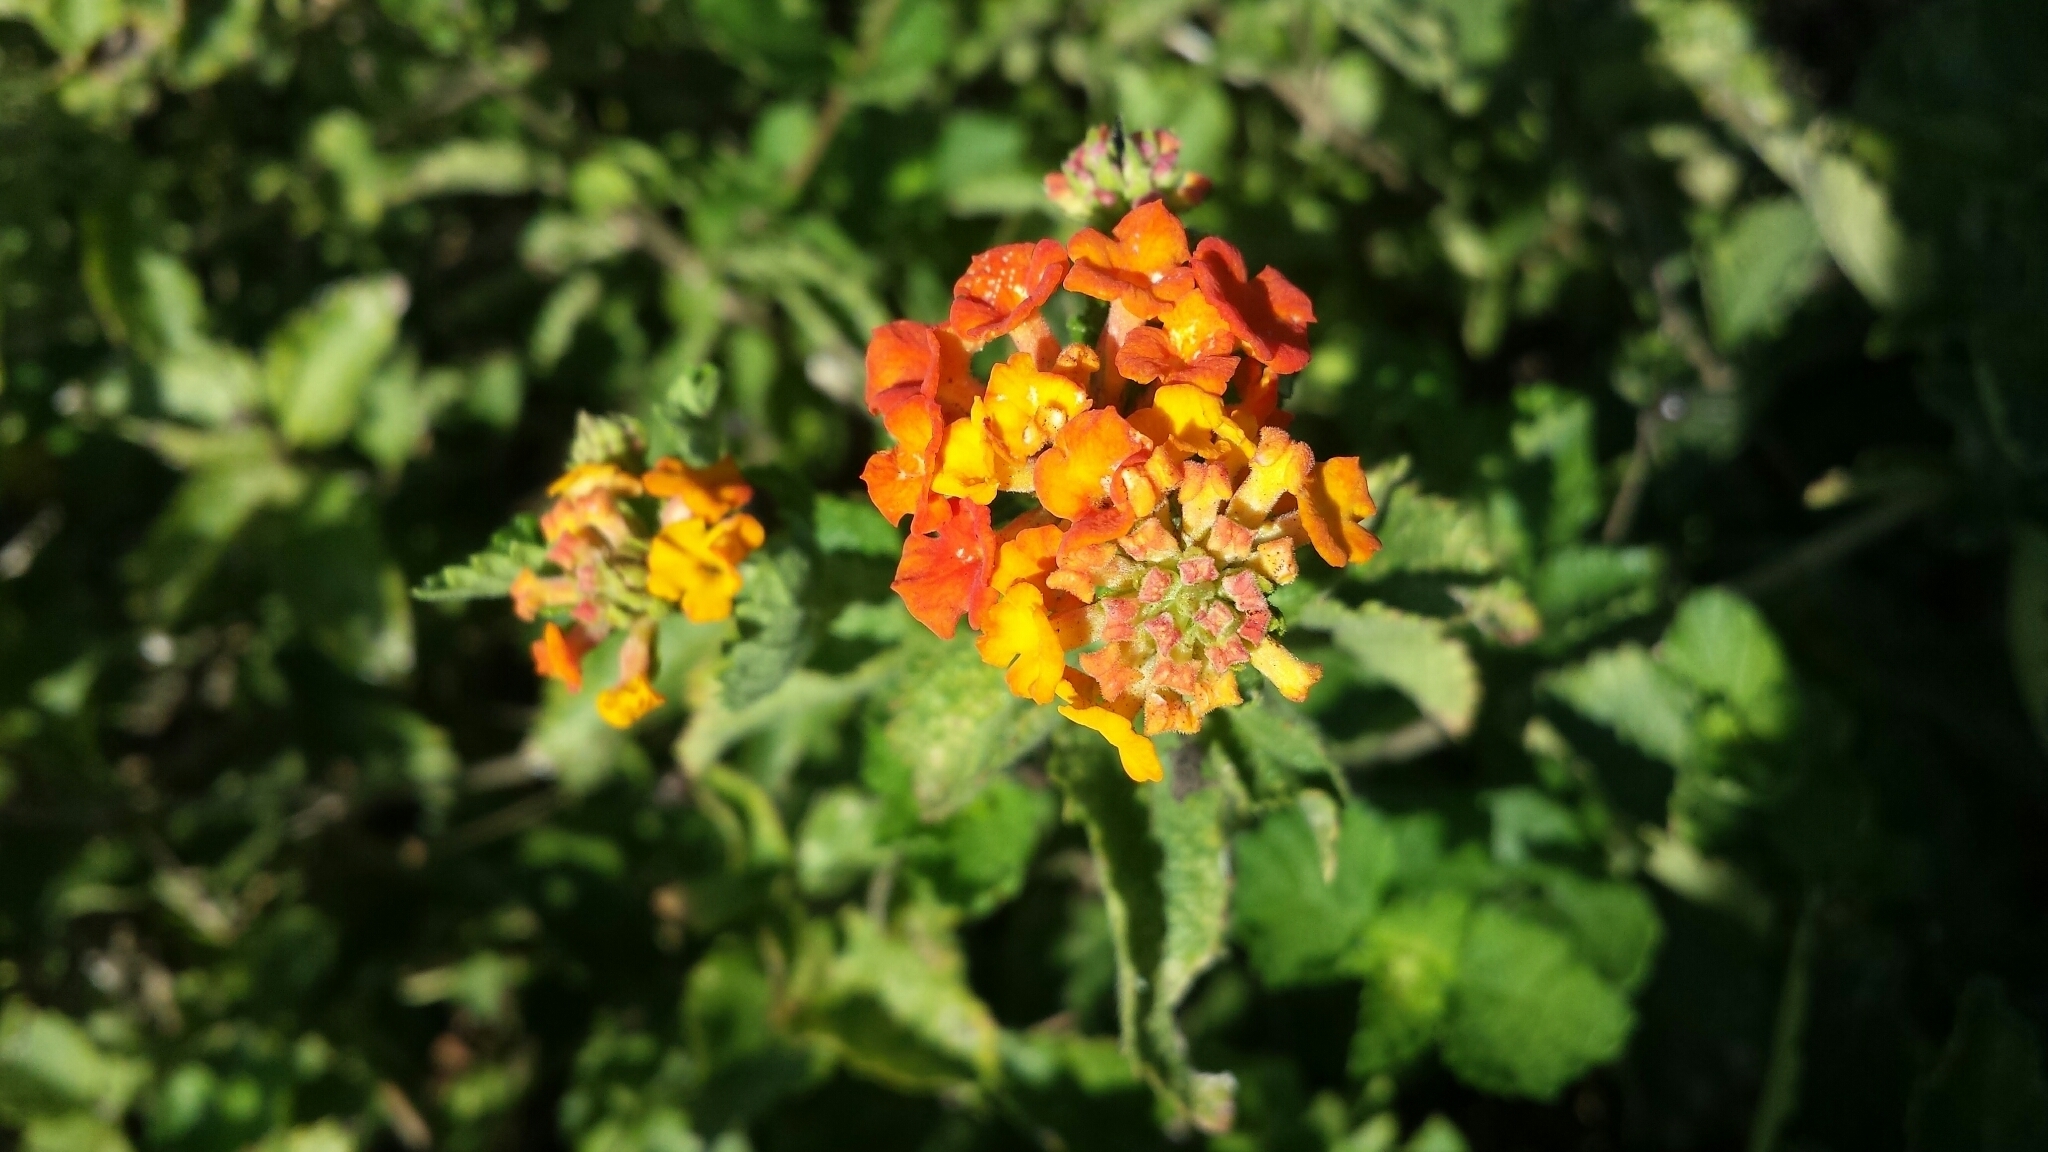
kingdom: Plantae
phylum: Tracheophyta
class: Magnoliopsida
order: Lamiales
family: Verbenaceae
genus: Lantana
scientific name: Lantana urticoides
